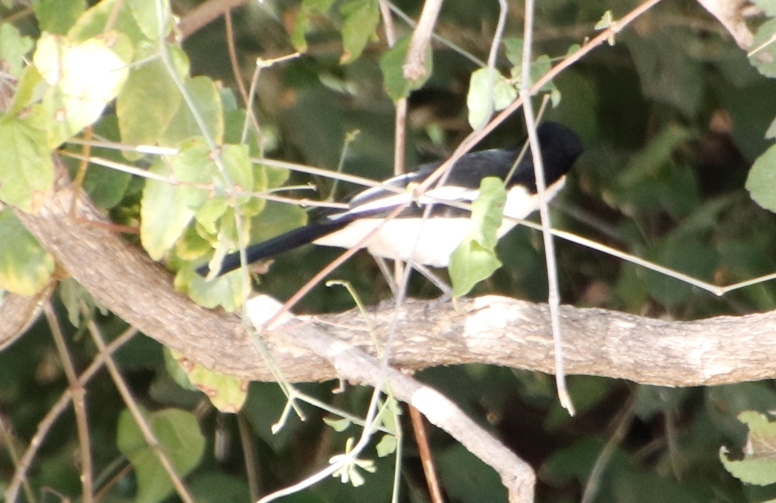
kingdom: Animalia
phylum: Chordata
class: Aves
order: Passeriformes
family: Malaconotidae
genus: Laniarius
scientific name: Laniarius bicolor
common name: Swamp boubou
